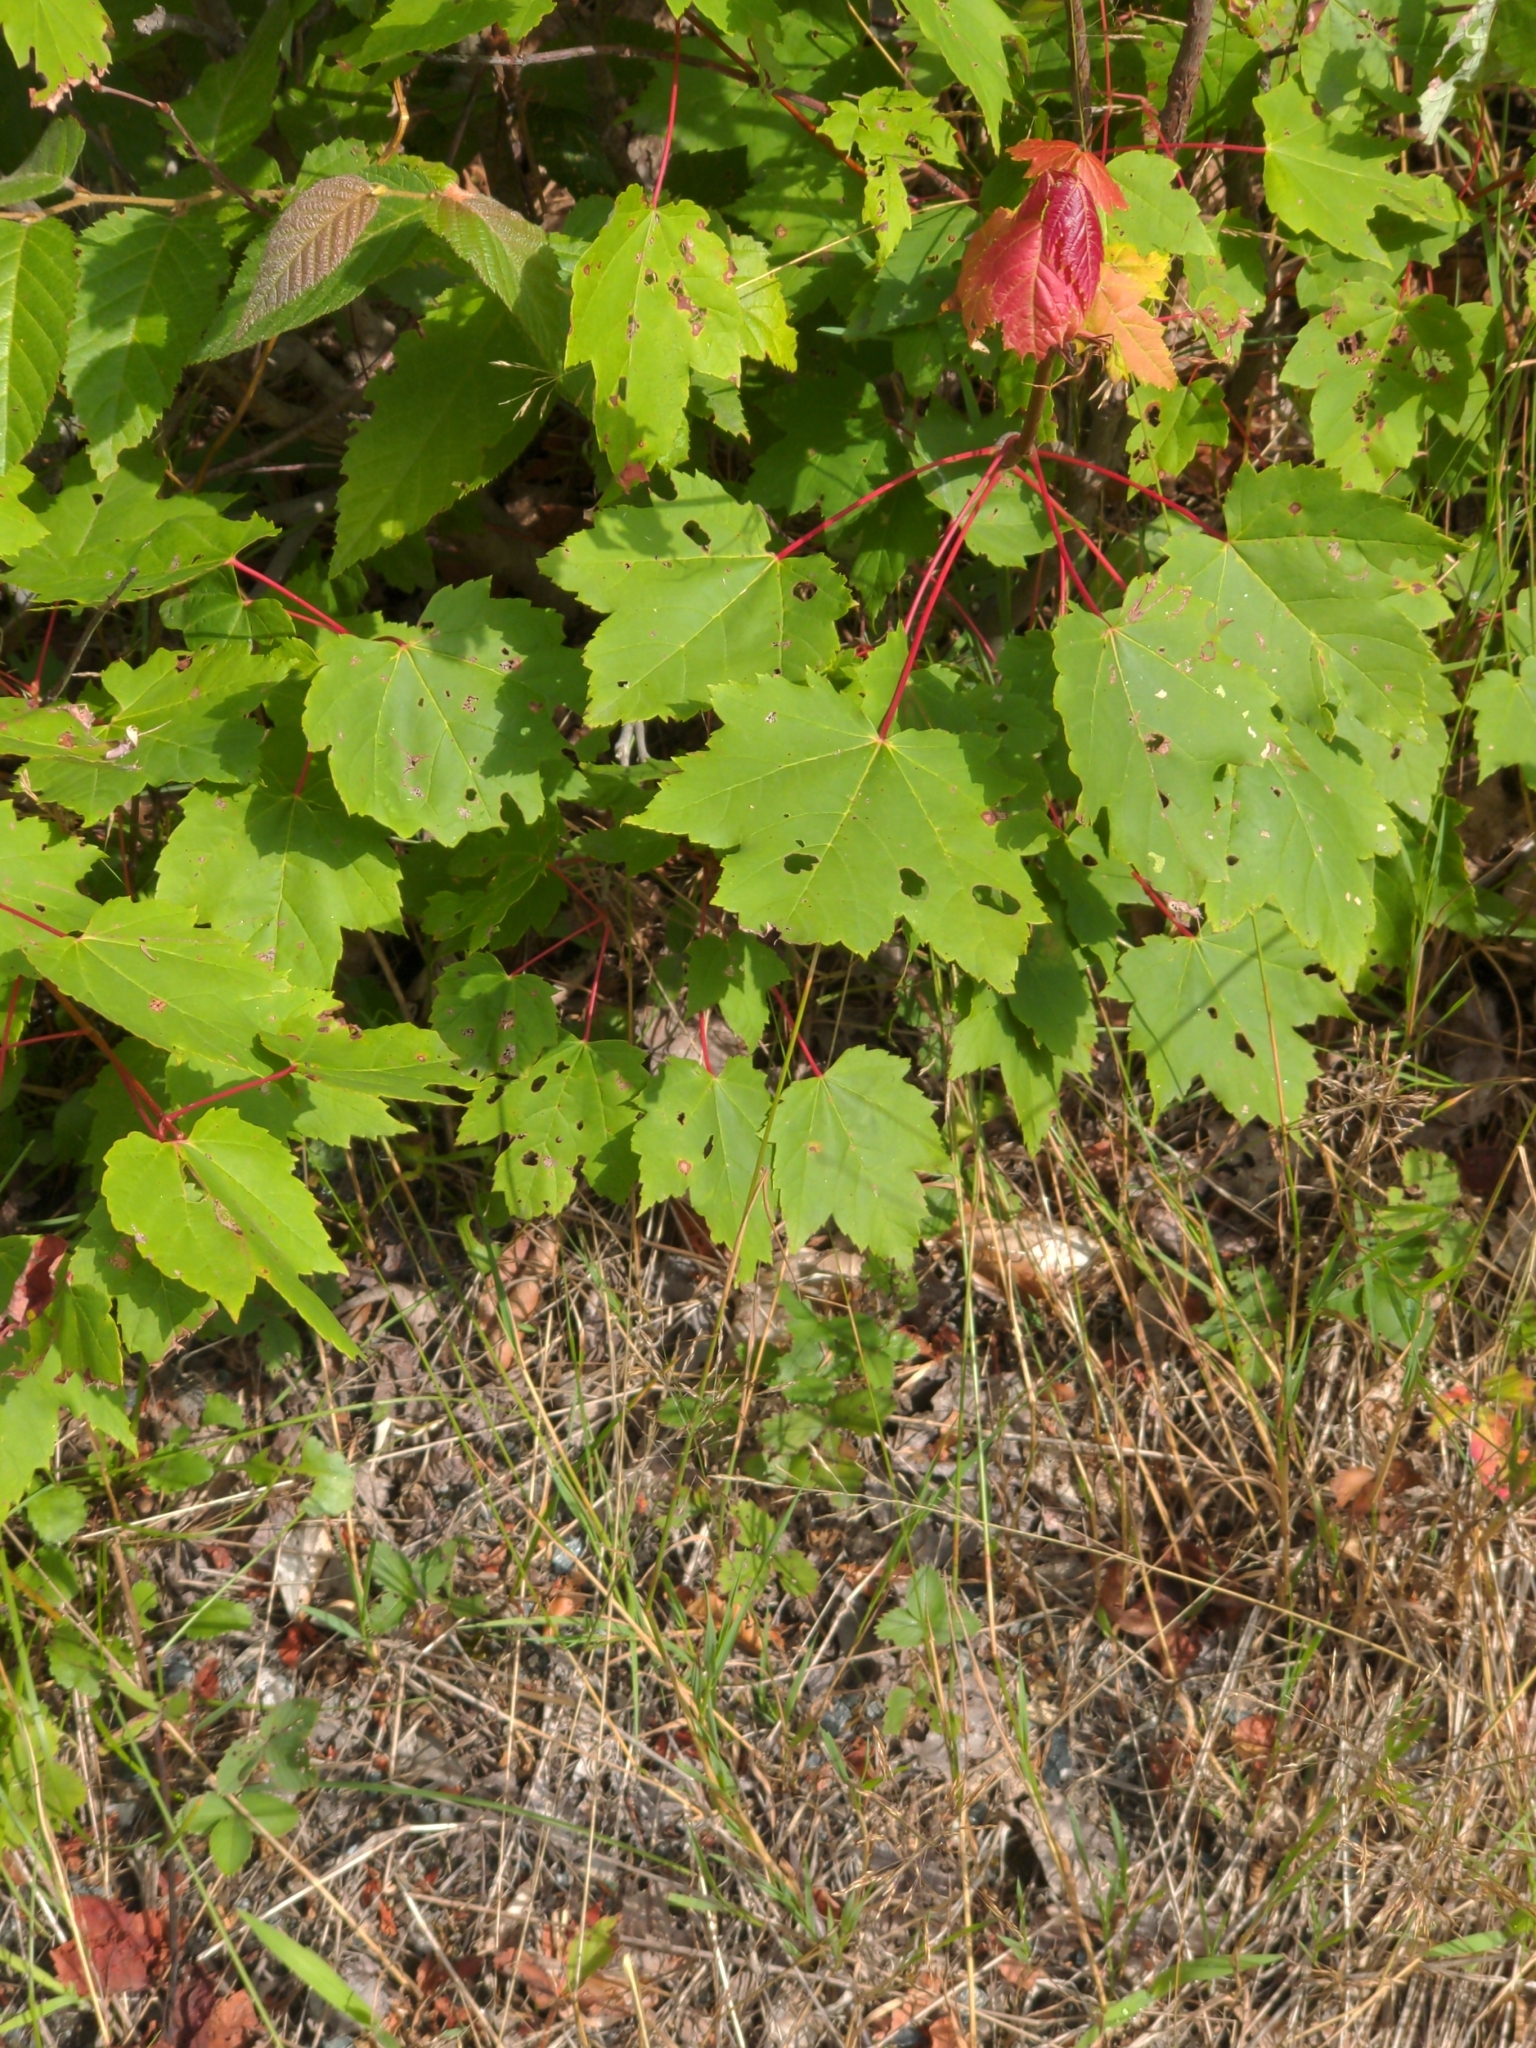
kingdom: Plantae
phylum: Tracheophyta
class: Magnoliopsida
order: Sapindales
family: Sapindaceae
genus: Acer
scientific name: Acer rubrum
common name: Red maple
